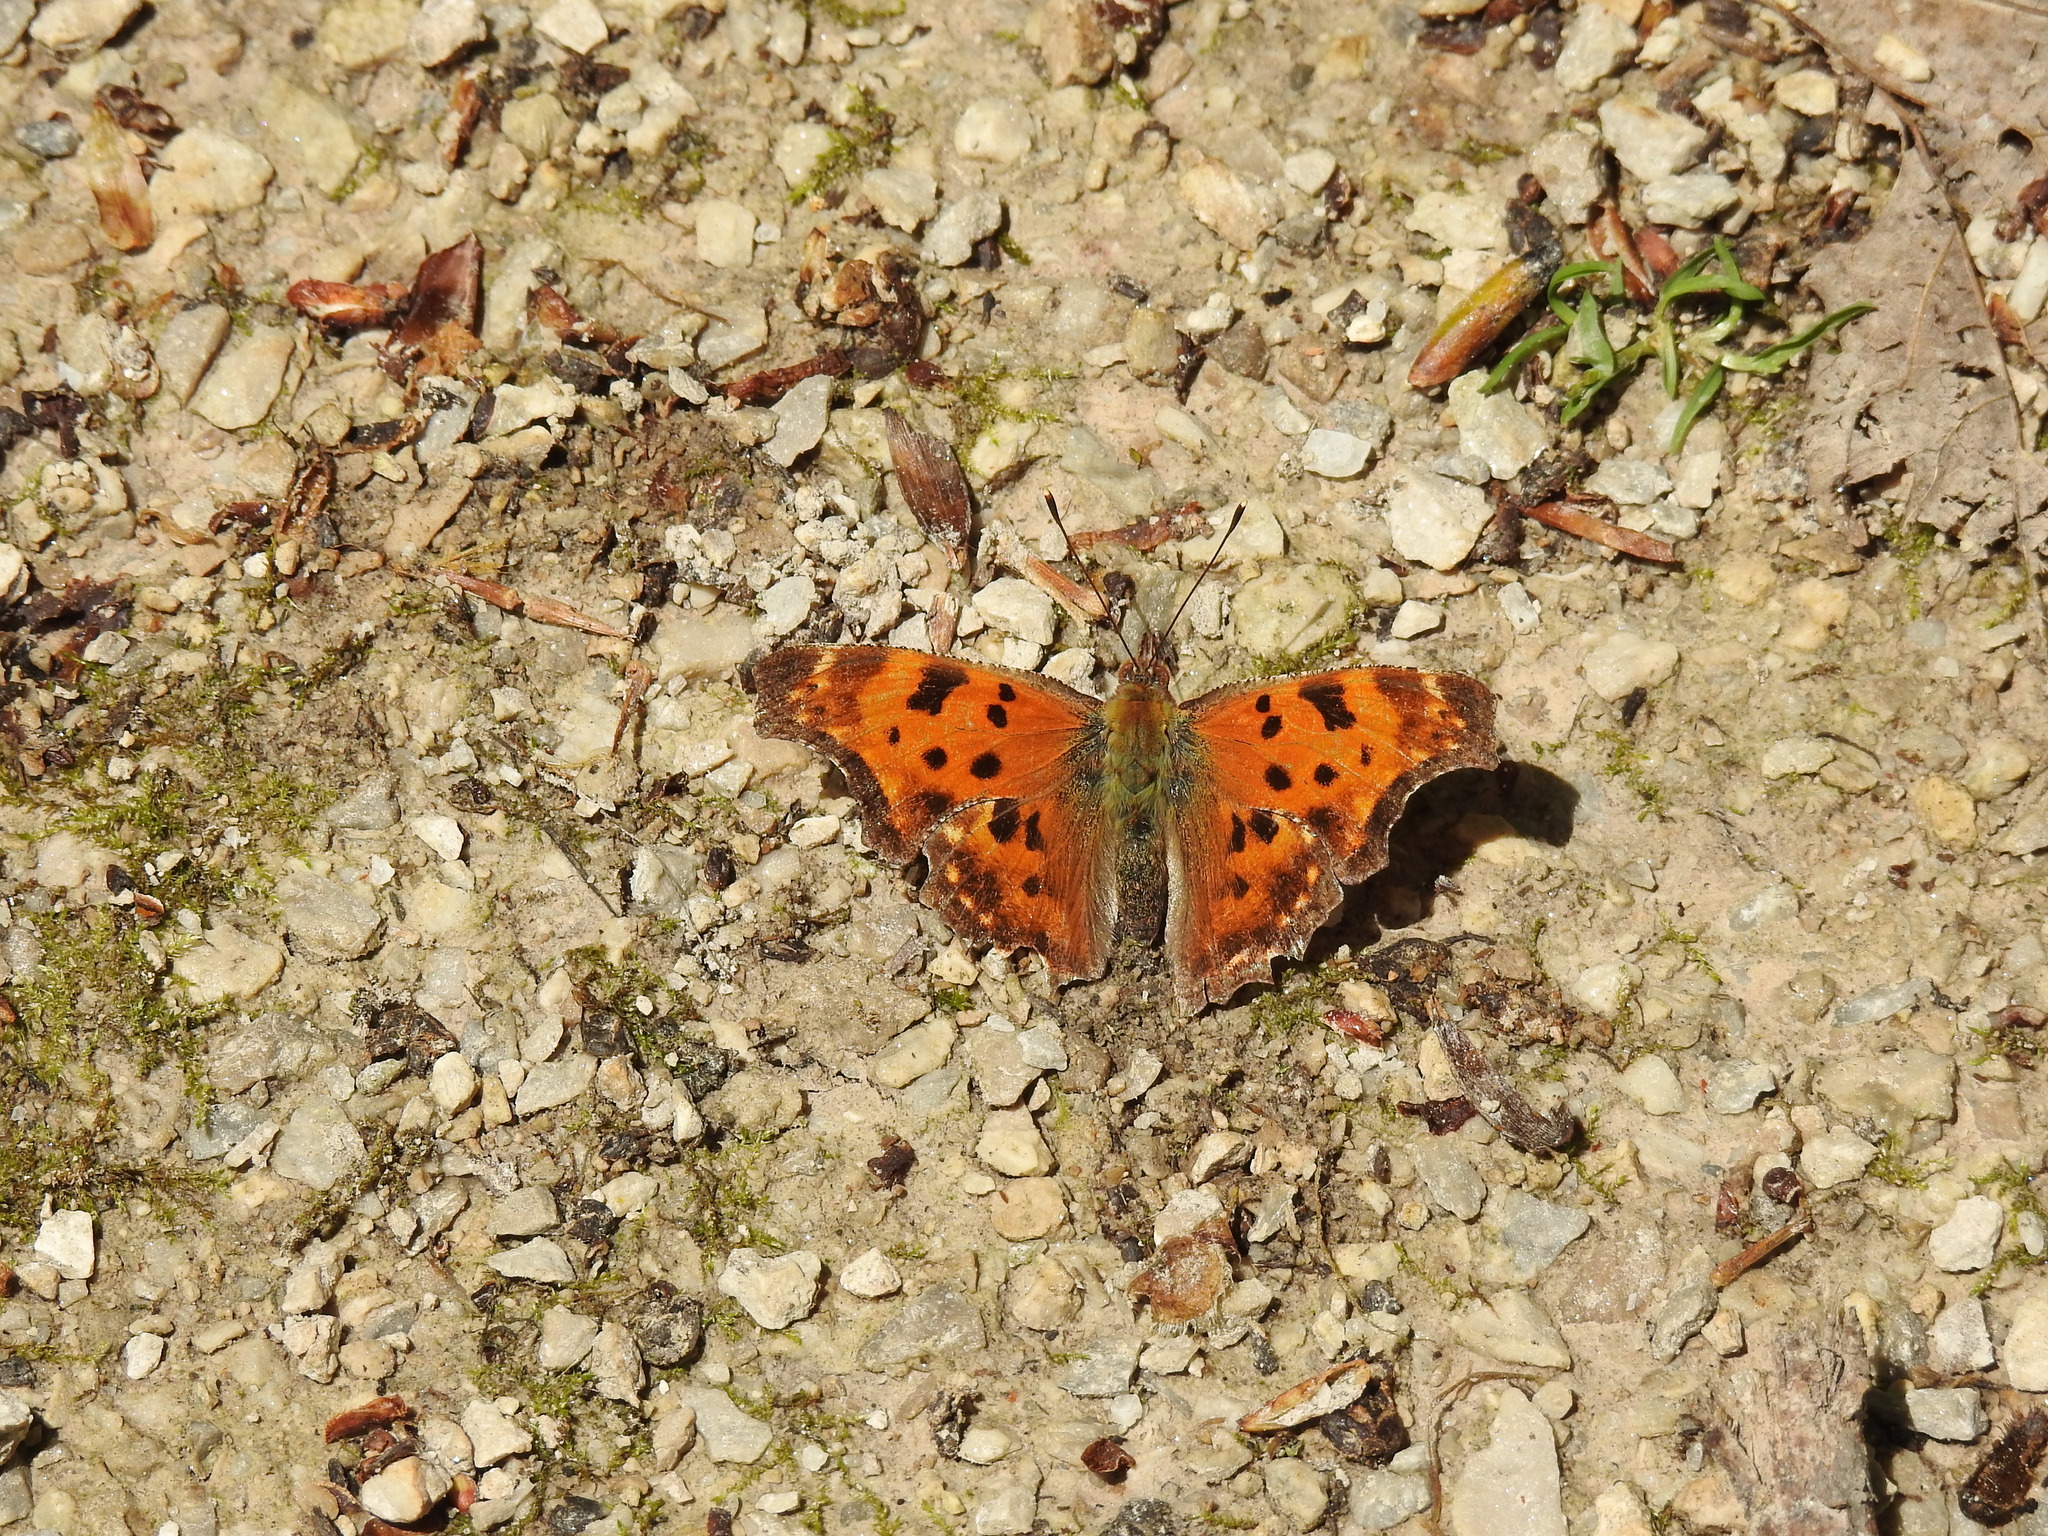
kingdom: Animalia
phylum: Arthropoda
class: Insecta
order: Lepidoptera
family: Nymphalidae
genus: Polygonia
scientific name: Polygonia comma
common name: Eastern comma
